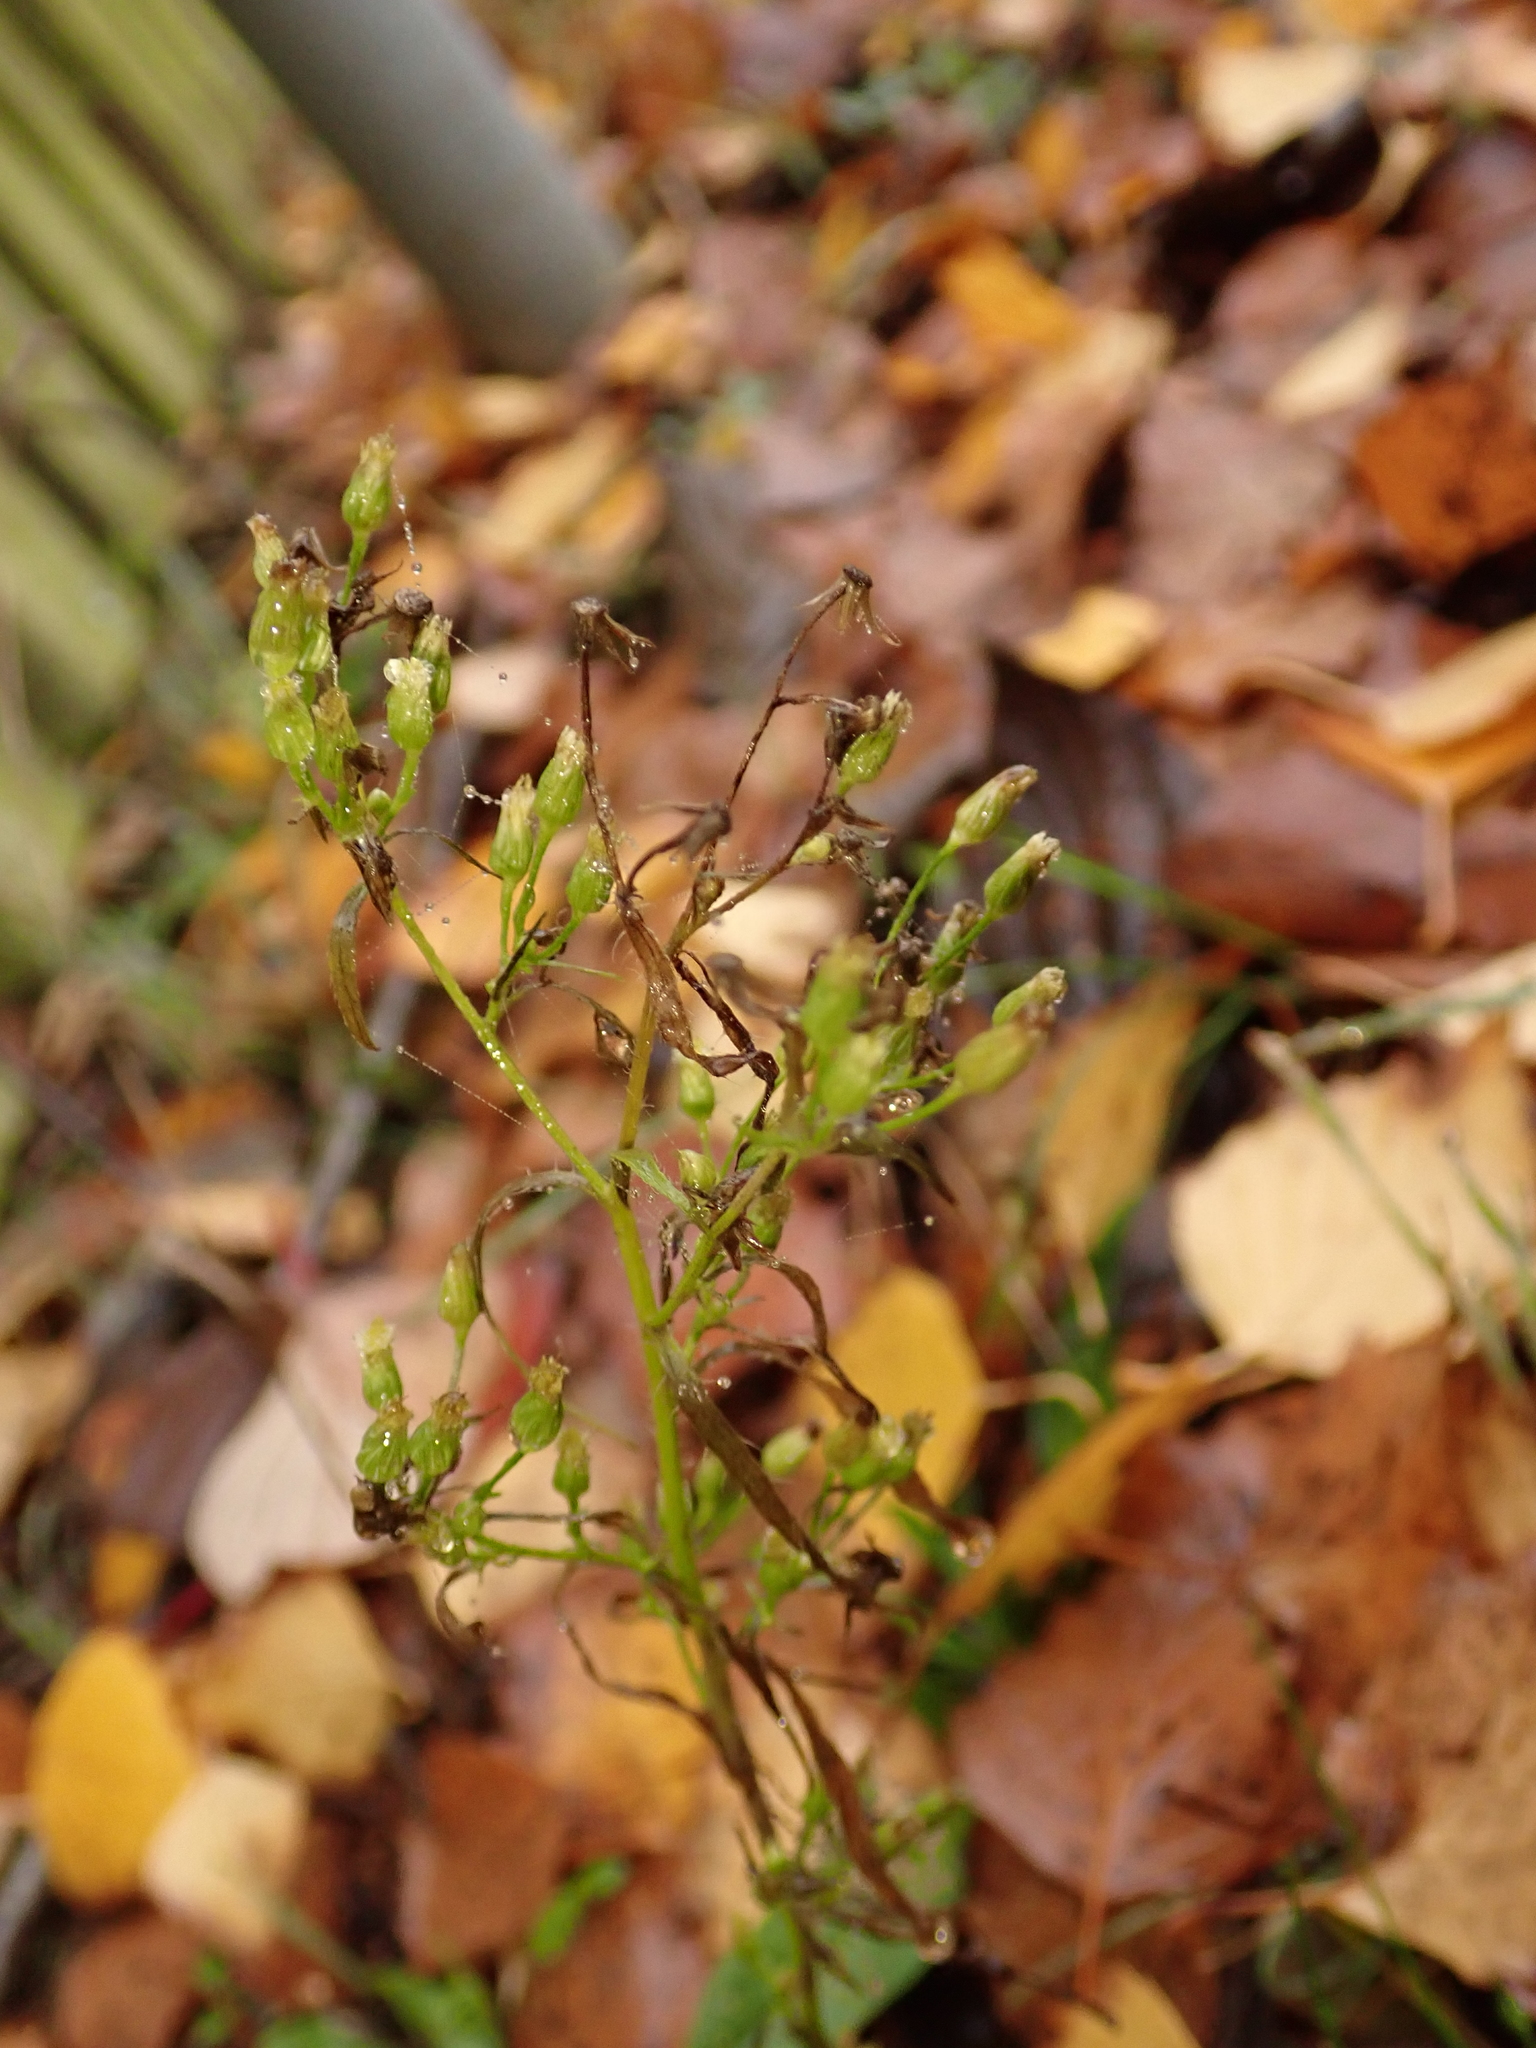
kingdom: Plantae
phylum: Tracheophyta
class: Magnoliopsida
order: Asterales
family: Asteraceae
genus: Erigeron
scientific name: Erigeron canadensis
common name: Canadian fleabane
